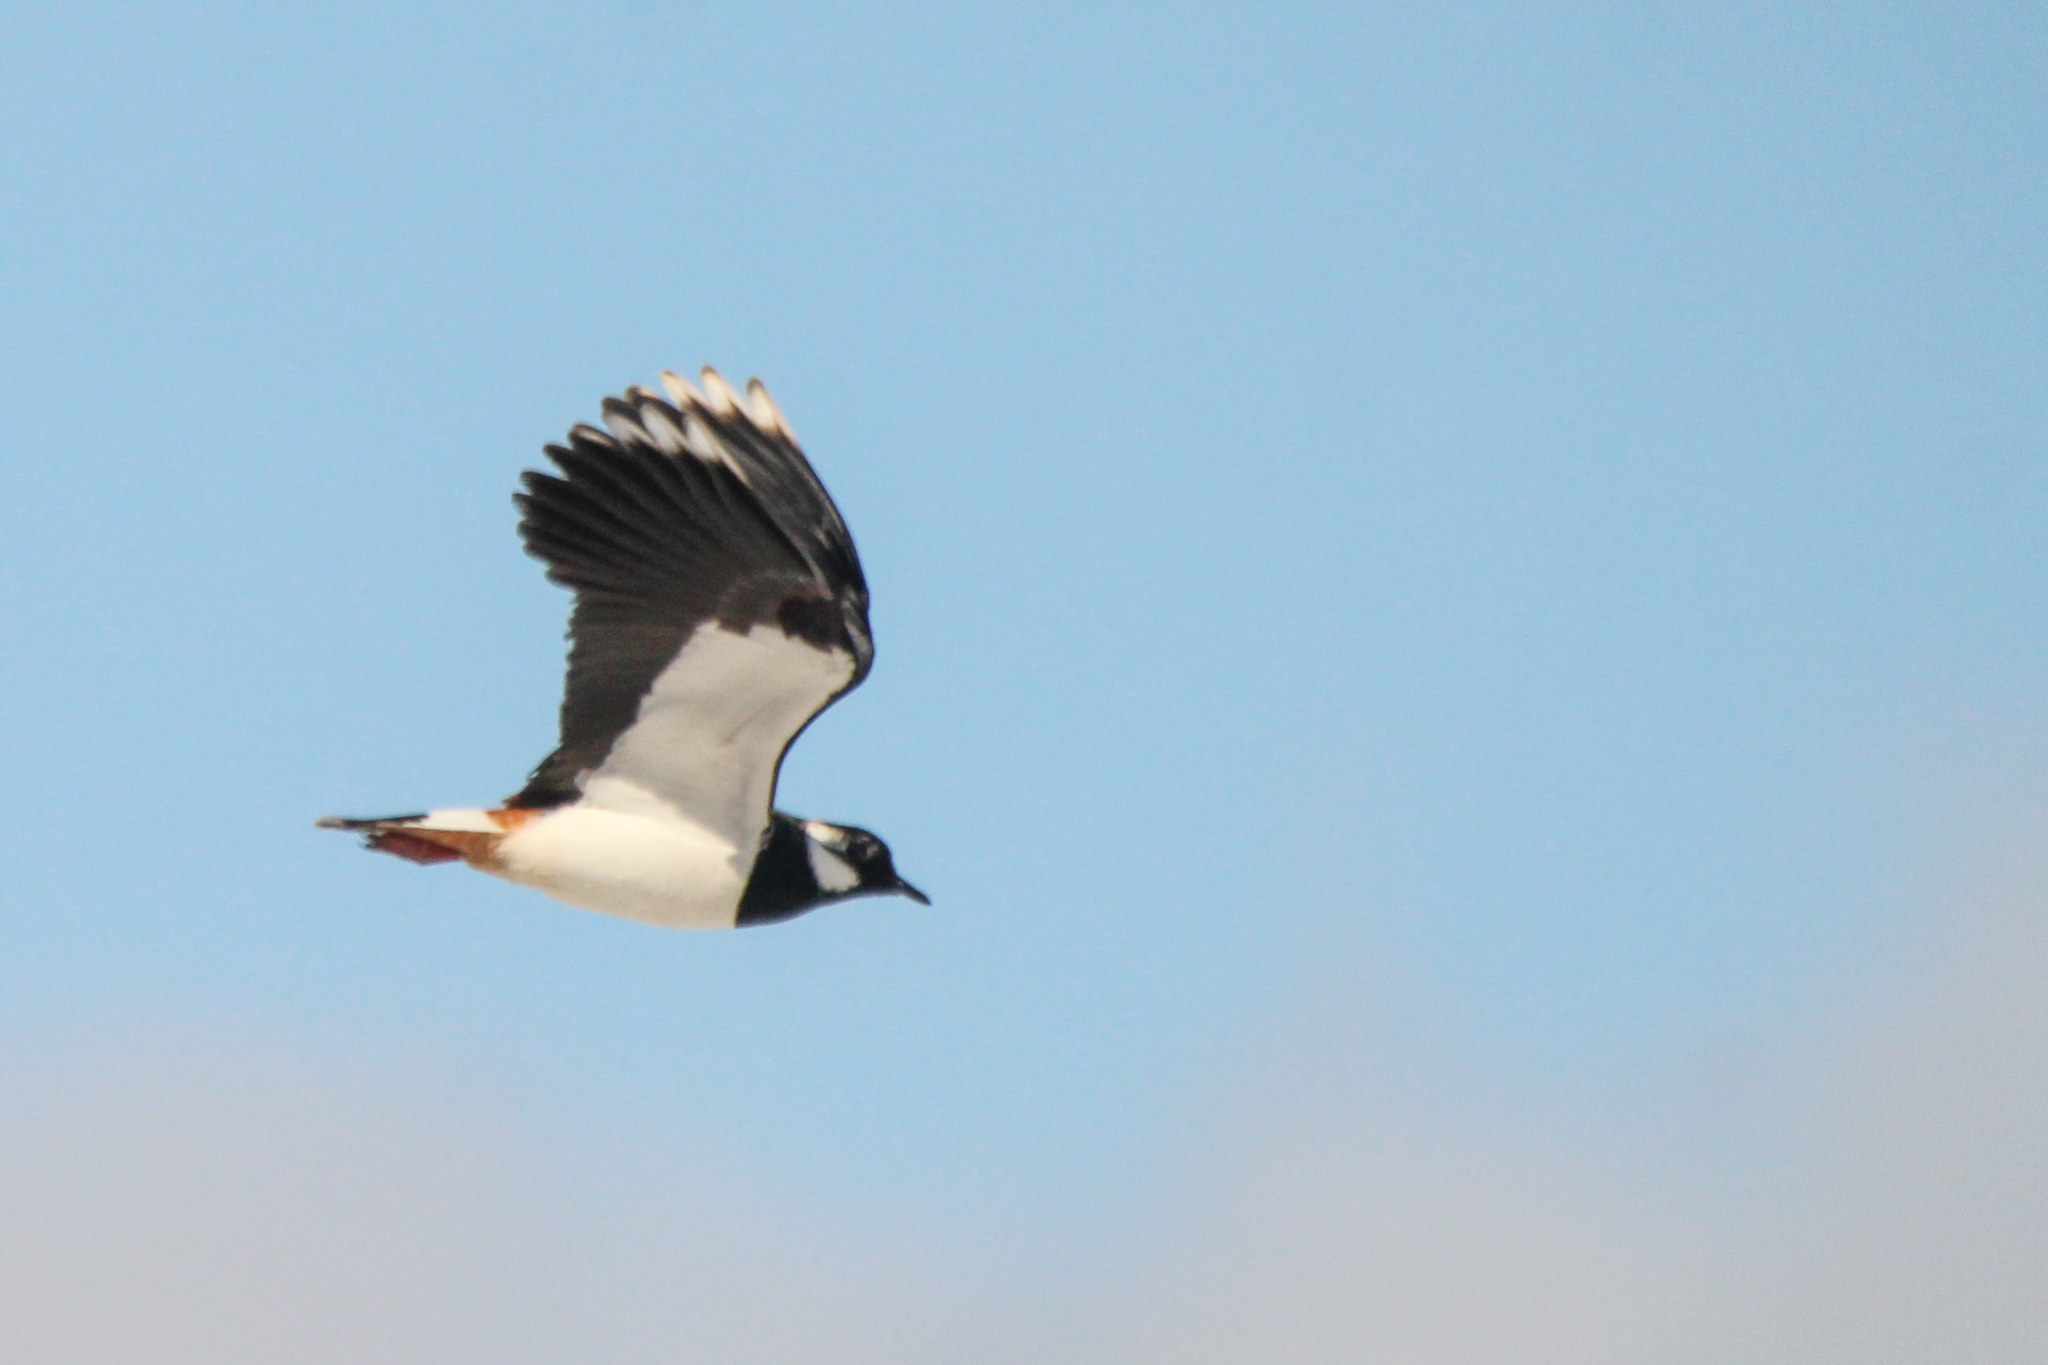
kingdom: Animalia
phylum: Chordata
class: Aves
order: Charadriiformes
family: Charadriidae
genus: Vanellus
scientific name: Vanellus vanellus
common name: Northern lapwing
